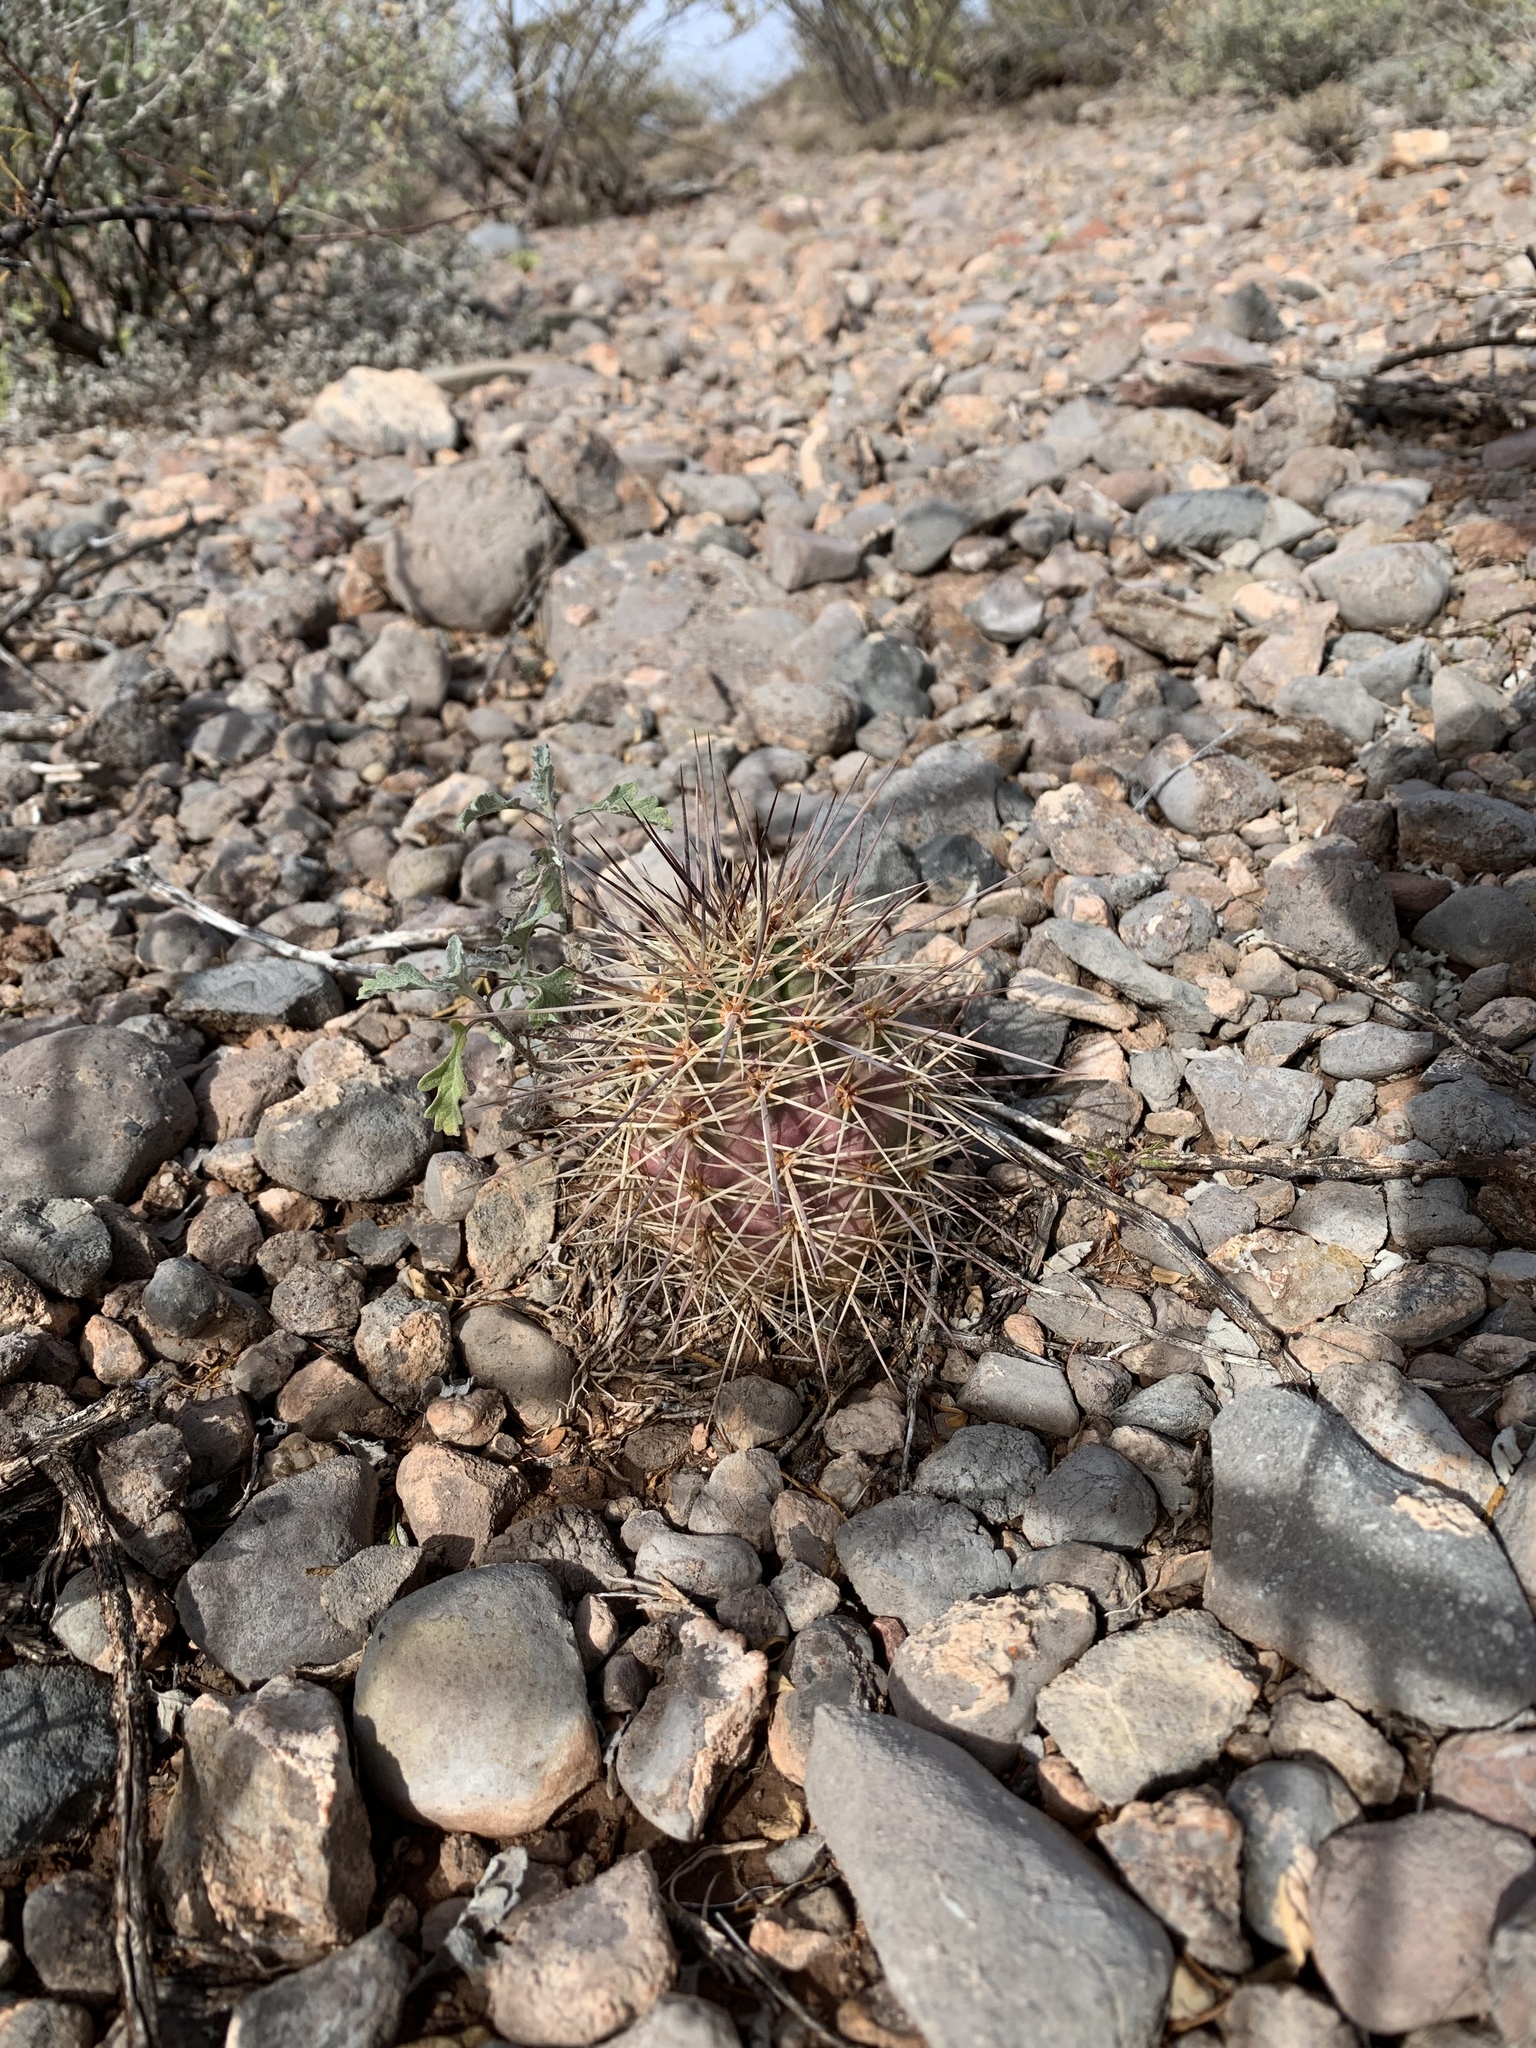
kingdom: Plantae
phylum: Tracheophyta
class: Magnoliopsida
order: Caryophyllales
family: Cactaceae
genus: Echinocereus
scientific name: Echinocereus coccineus
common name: Scarlet hedgehog cactus
